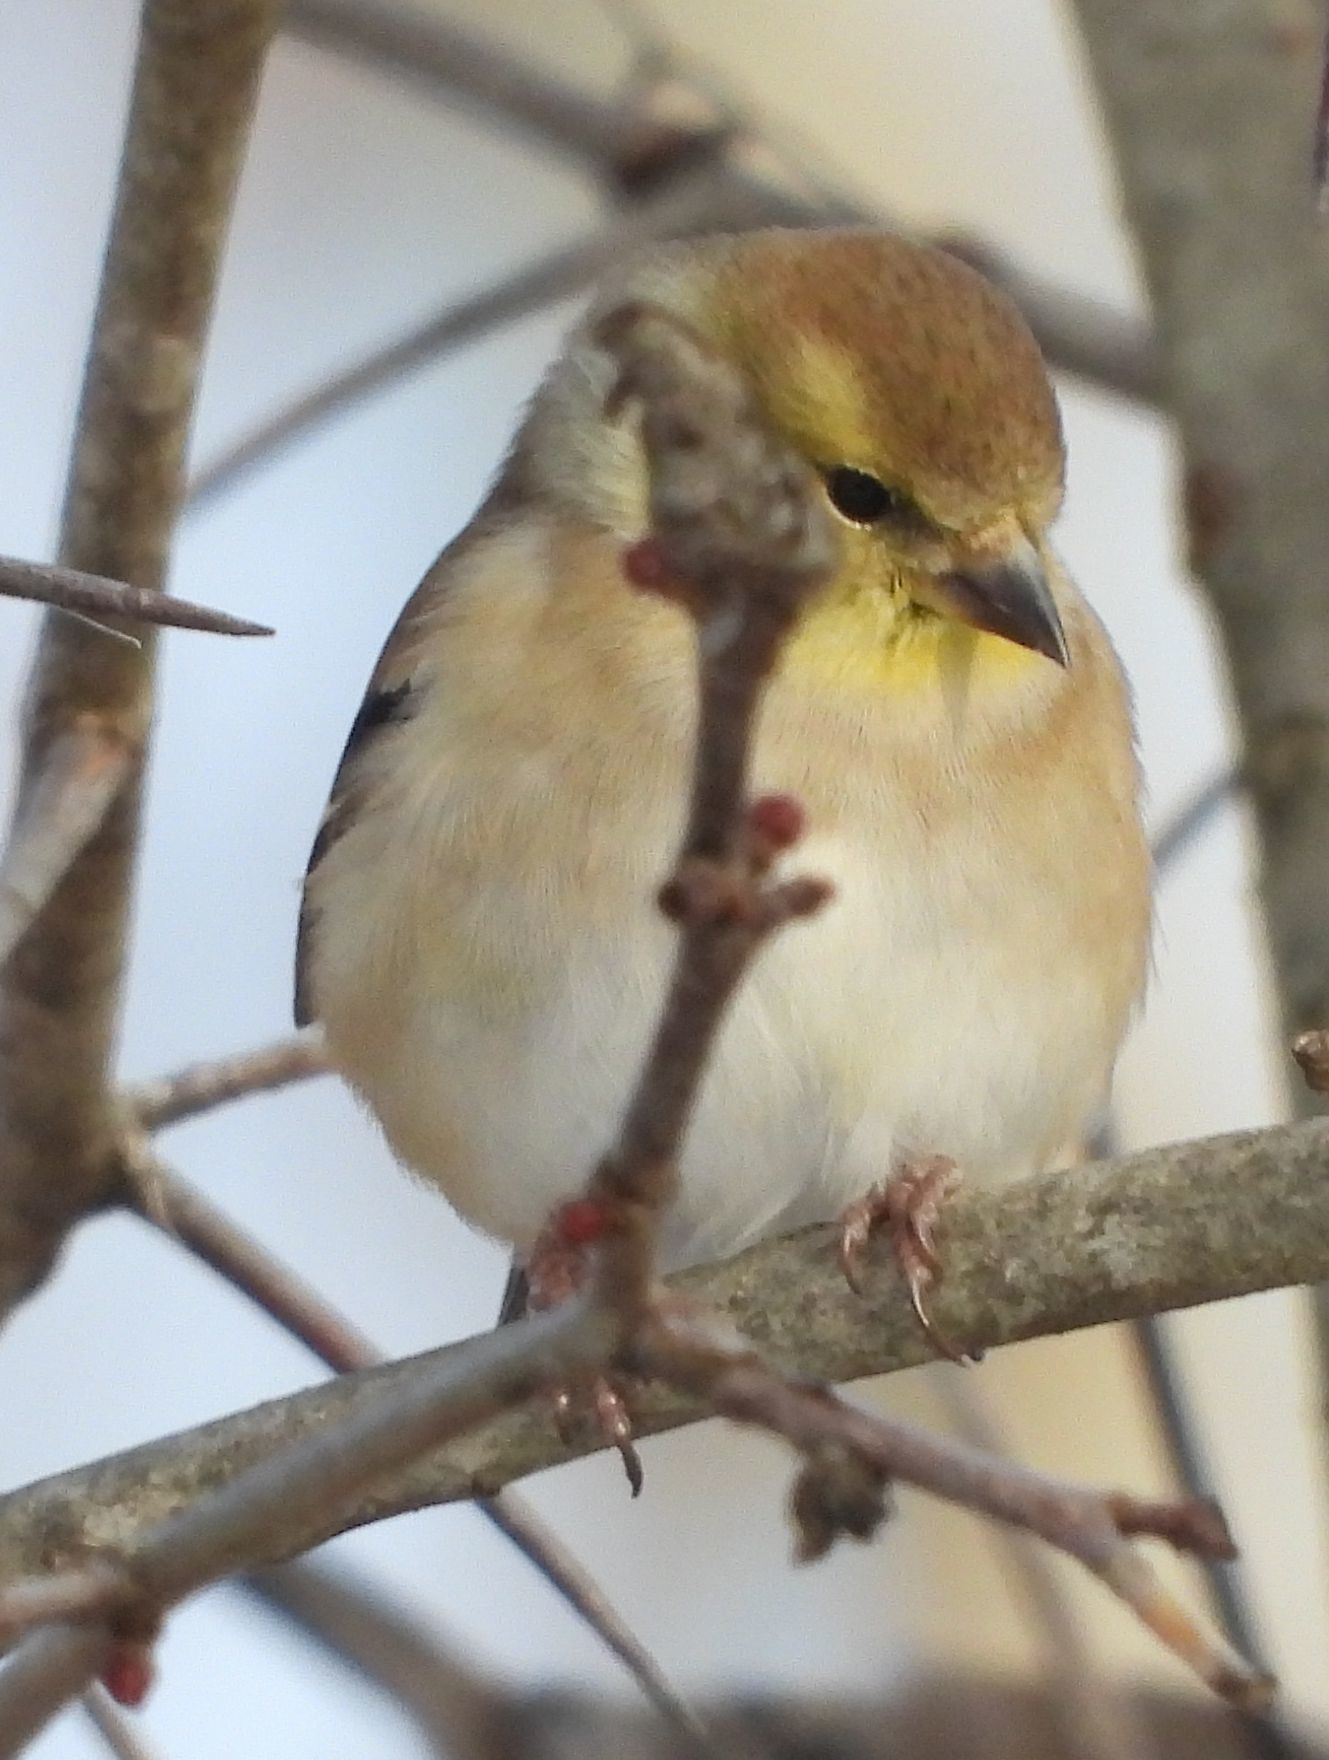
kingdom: Animalia
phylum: Chordata
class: Aves
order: Passeriformes
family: Fringillidae
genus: Spinus
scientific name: Spinus tristis
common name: American goldfinch
